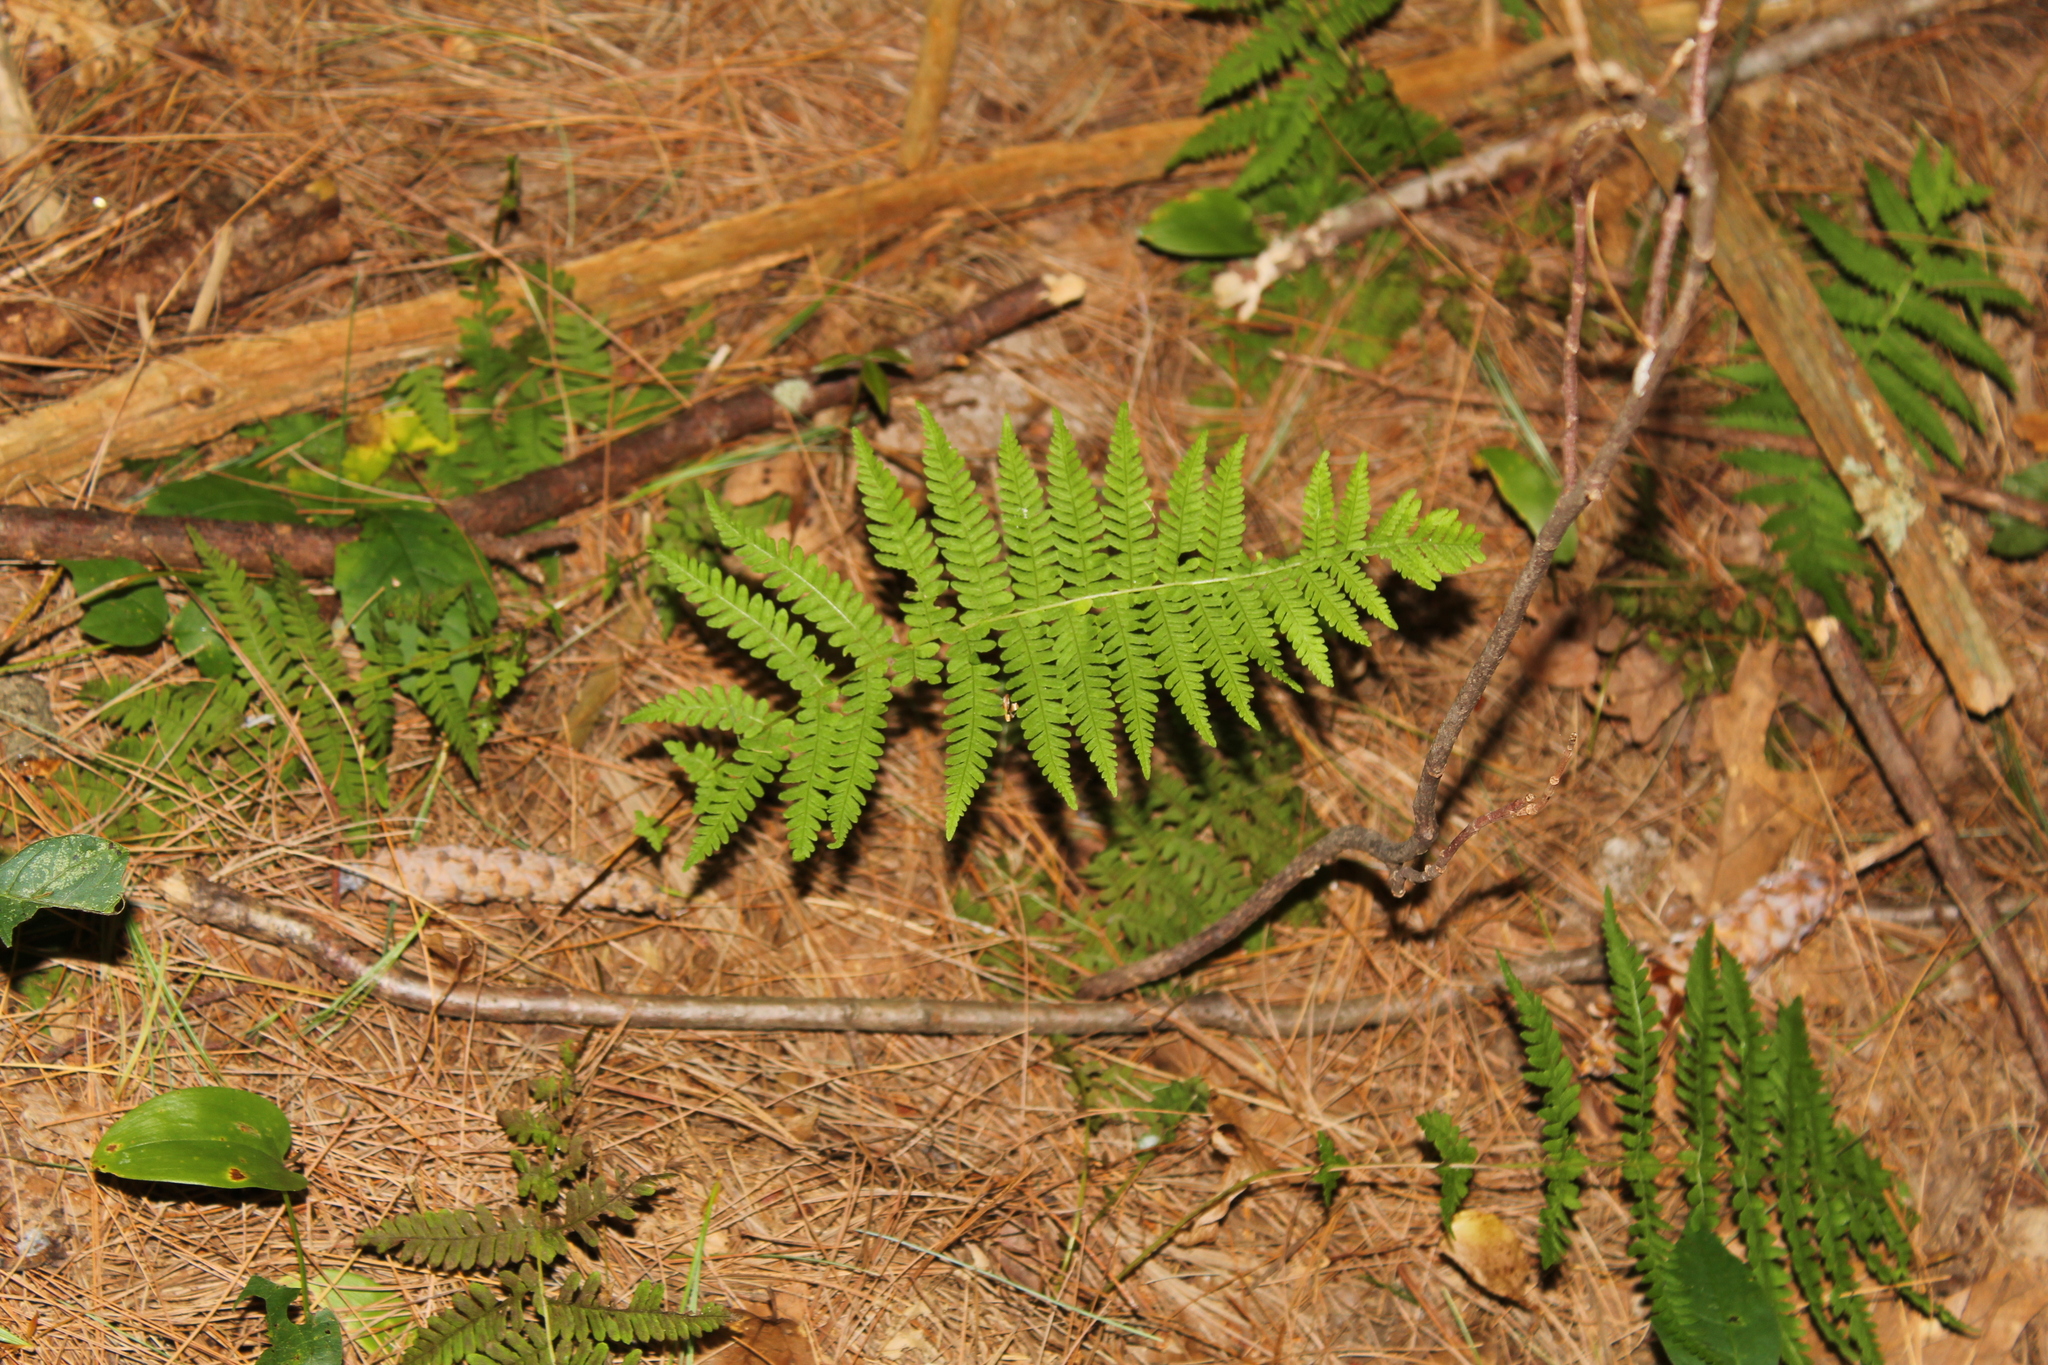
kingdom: Plantae
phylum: Tracheophyta
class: Polypodiopsida
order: Polypodiales
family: Thelypteridaceae
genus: Amauropelta
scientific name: Amauropelta noveboracensis
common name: New york fern
